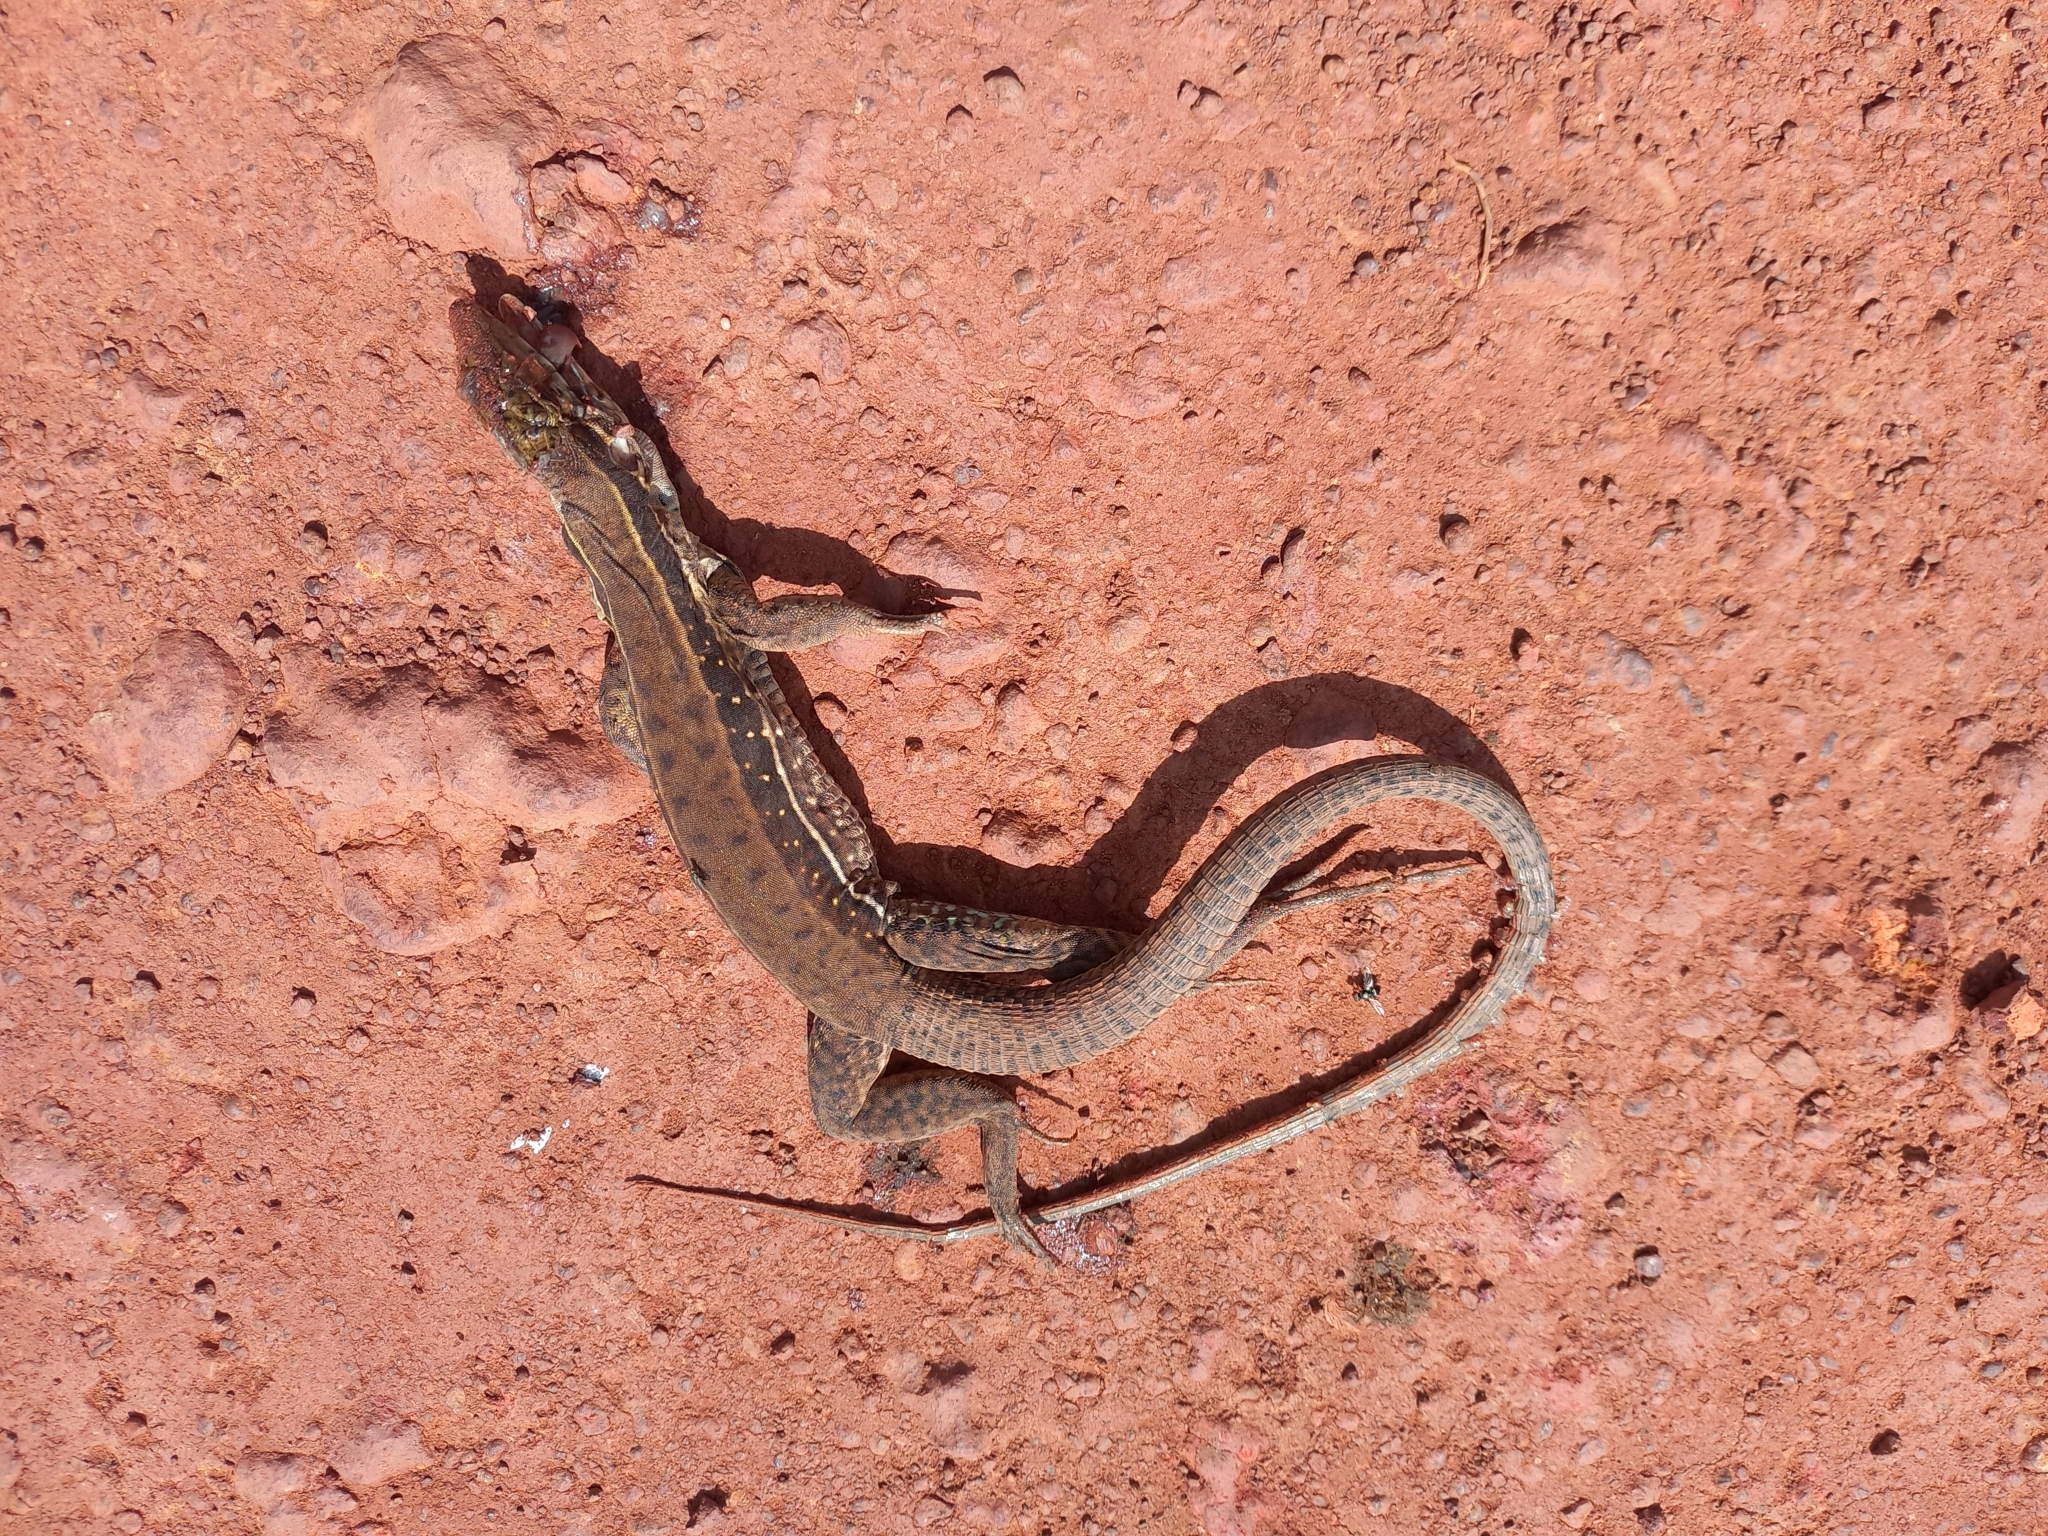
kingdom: Animalia
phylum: Chordata
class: Squamata
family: Teiidae
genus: Ameiva
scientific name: Ameiva ameiva
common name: Giant ameiva
